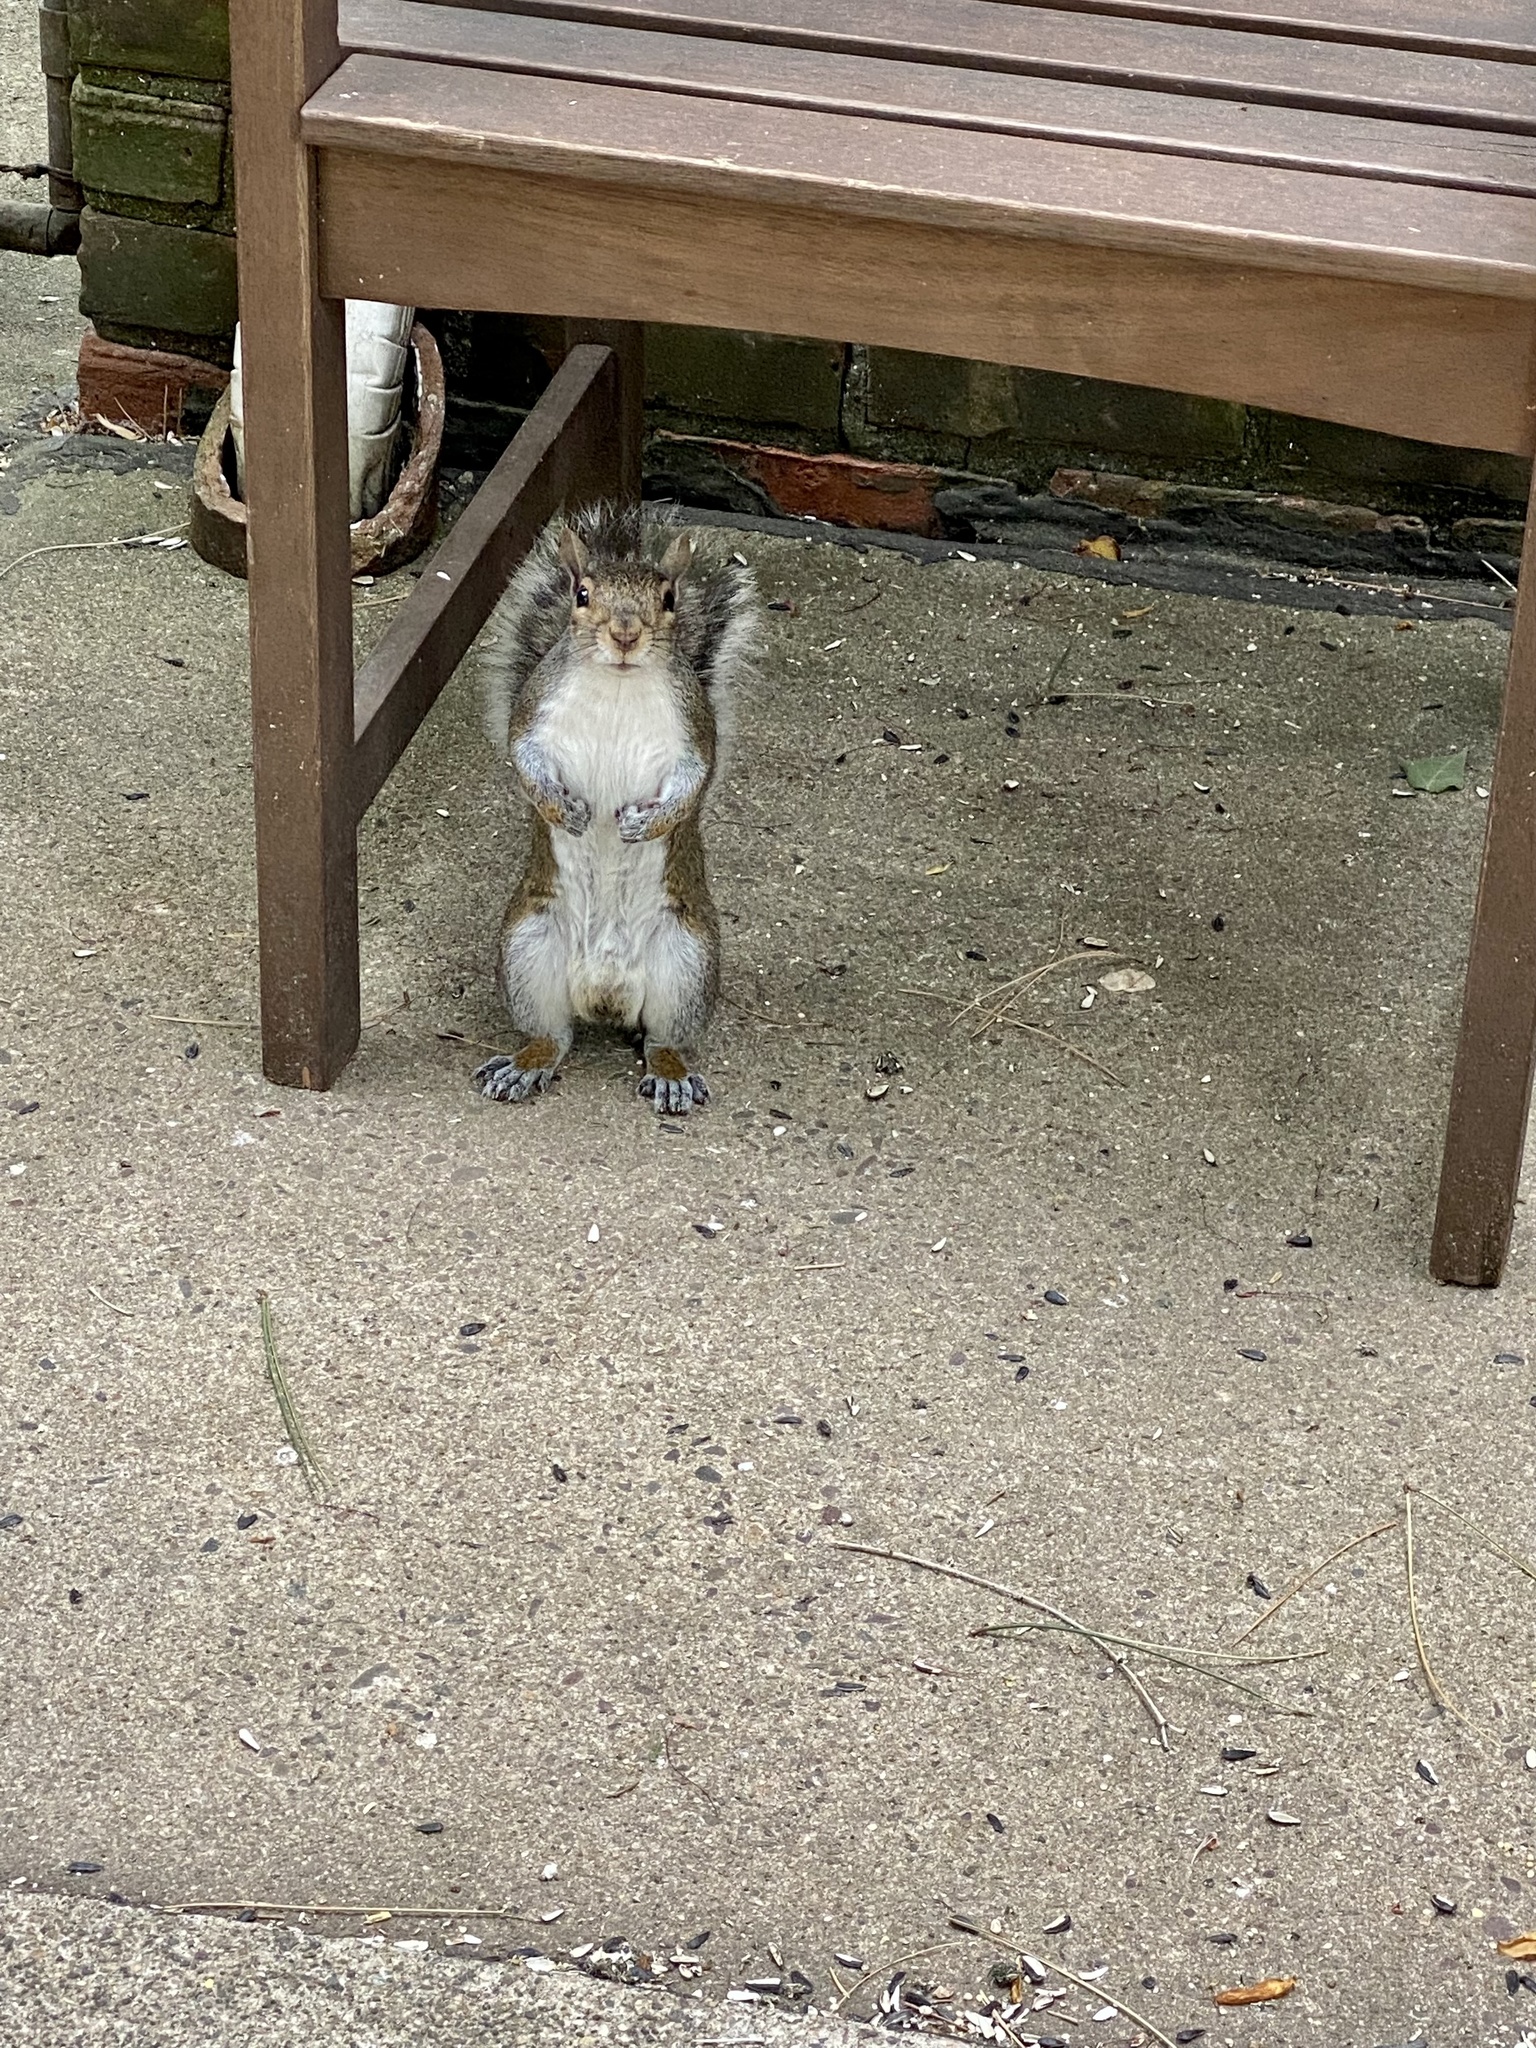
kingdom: Animalia
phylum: Chordata
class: Mammalia
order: Rodentia
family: Sciuridae
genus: Sciurus
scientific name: Sciurus carolinensis
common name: Eastern gray squirrel
